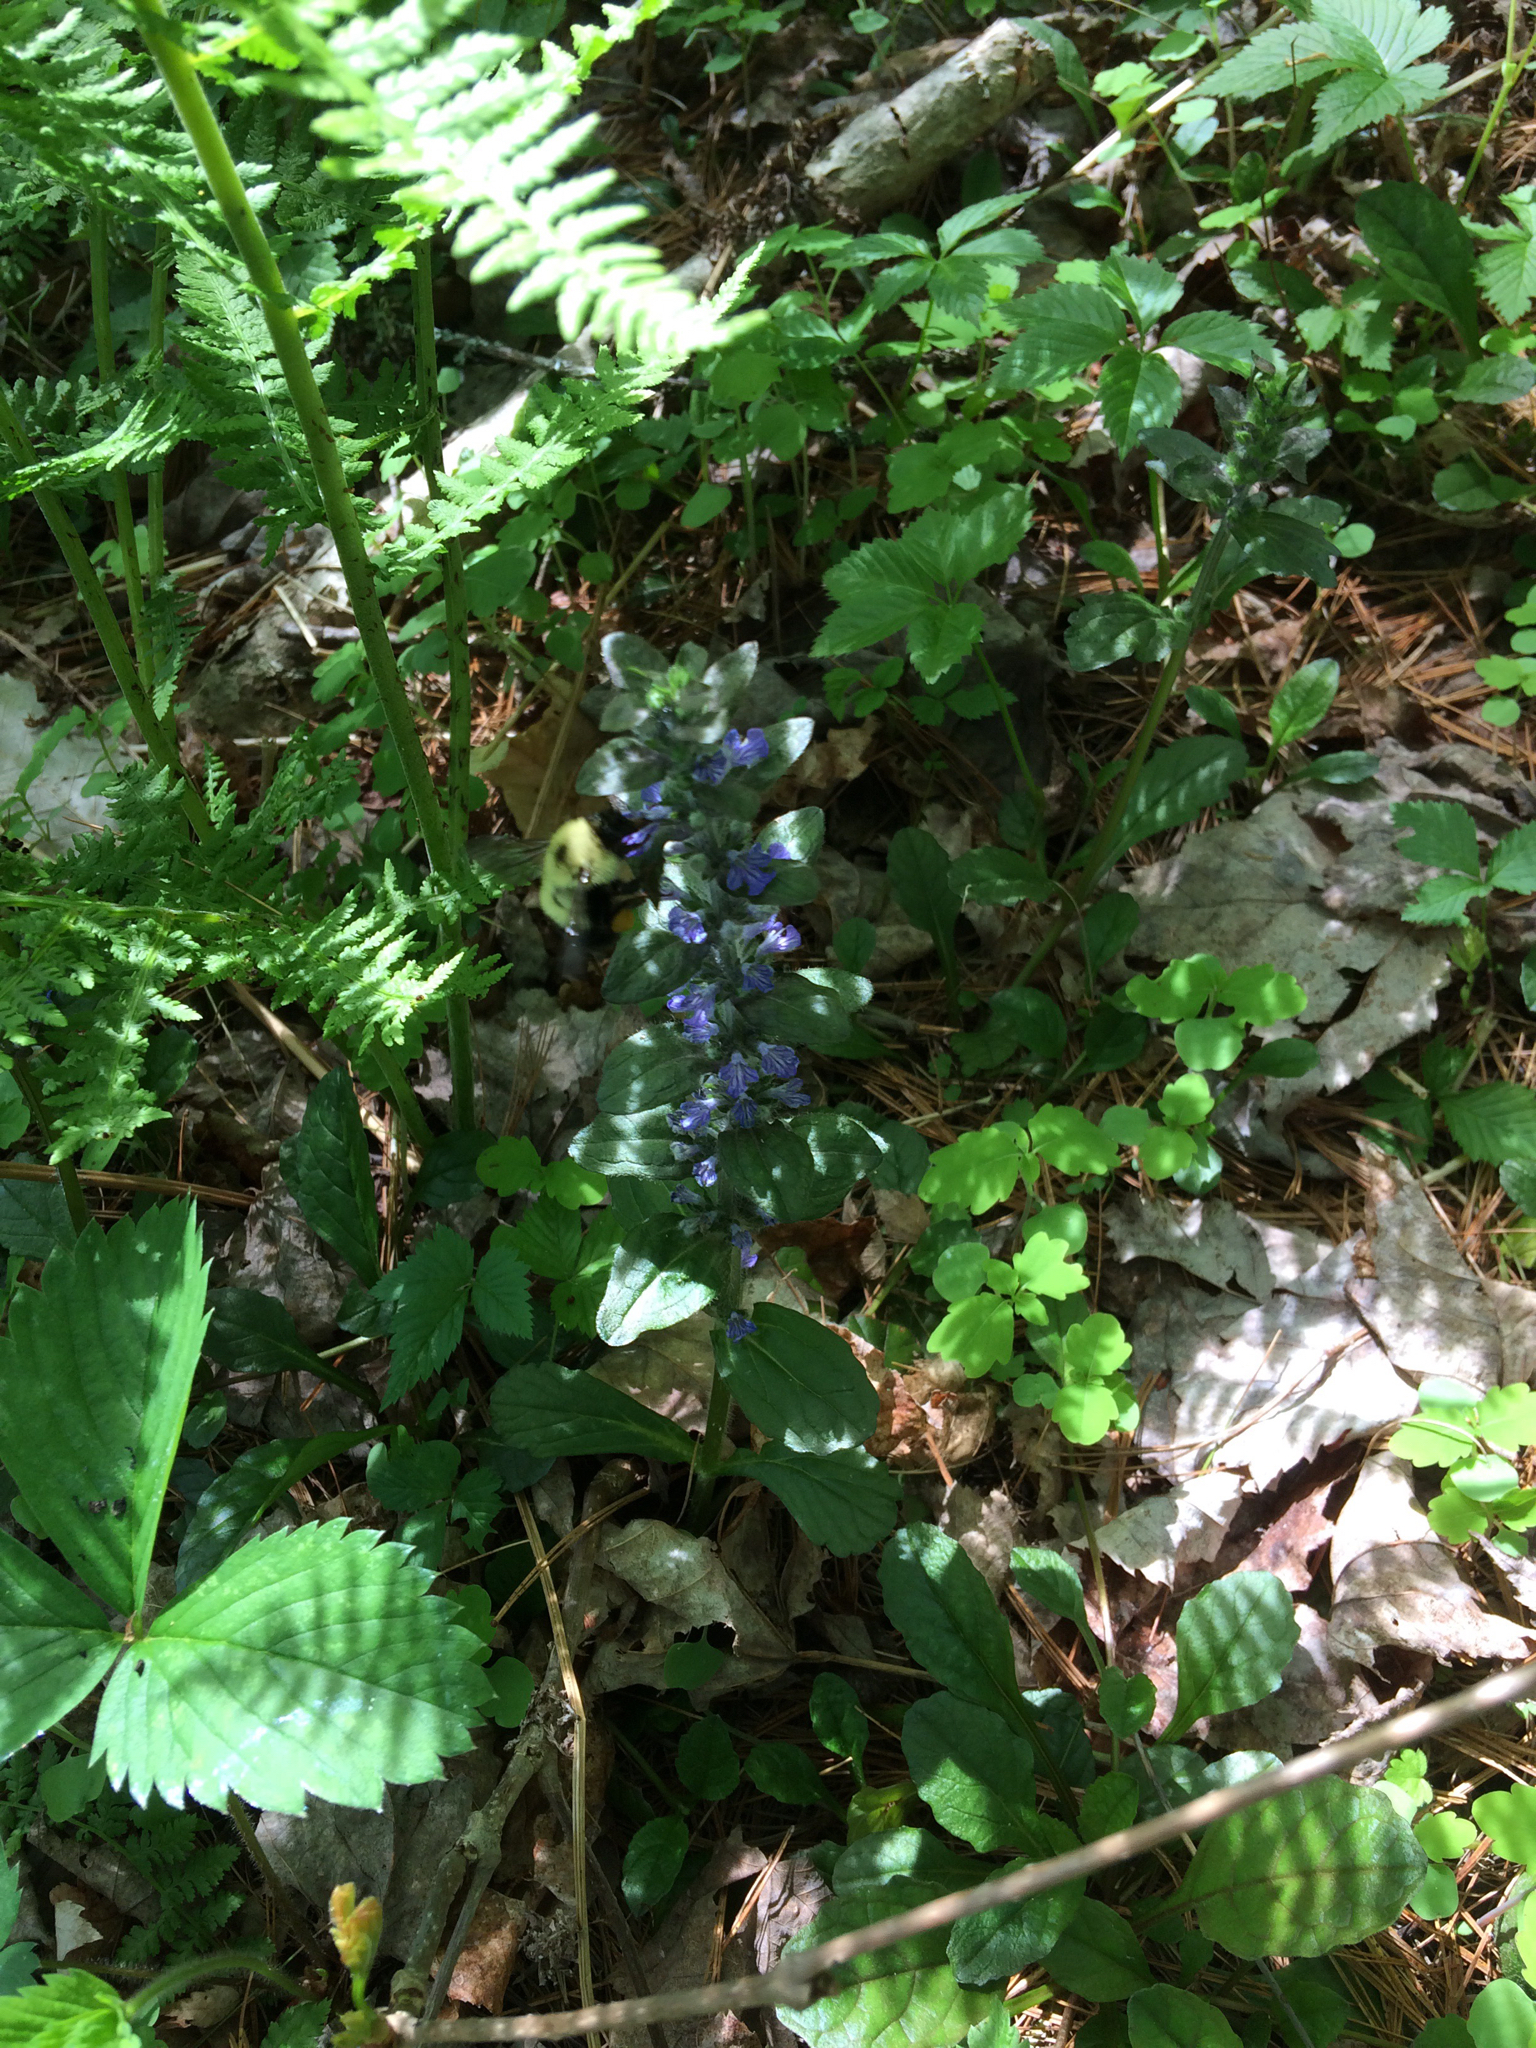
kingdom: Plantae
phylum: Tracheophyta
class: Magnoliopsida
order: Lamiales
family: Lamiaceae
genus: Ajuga
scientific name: Ajuga reptans
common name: Bugle
